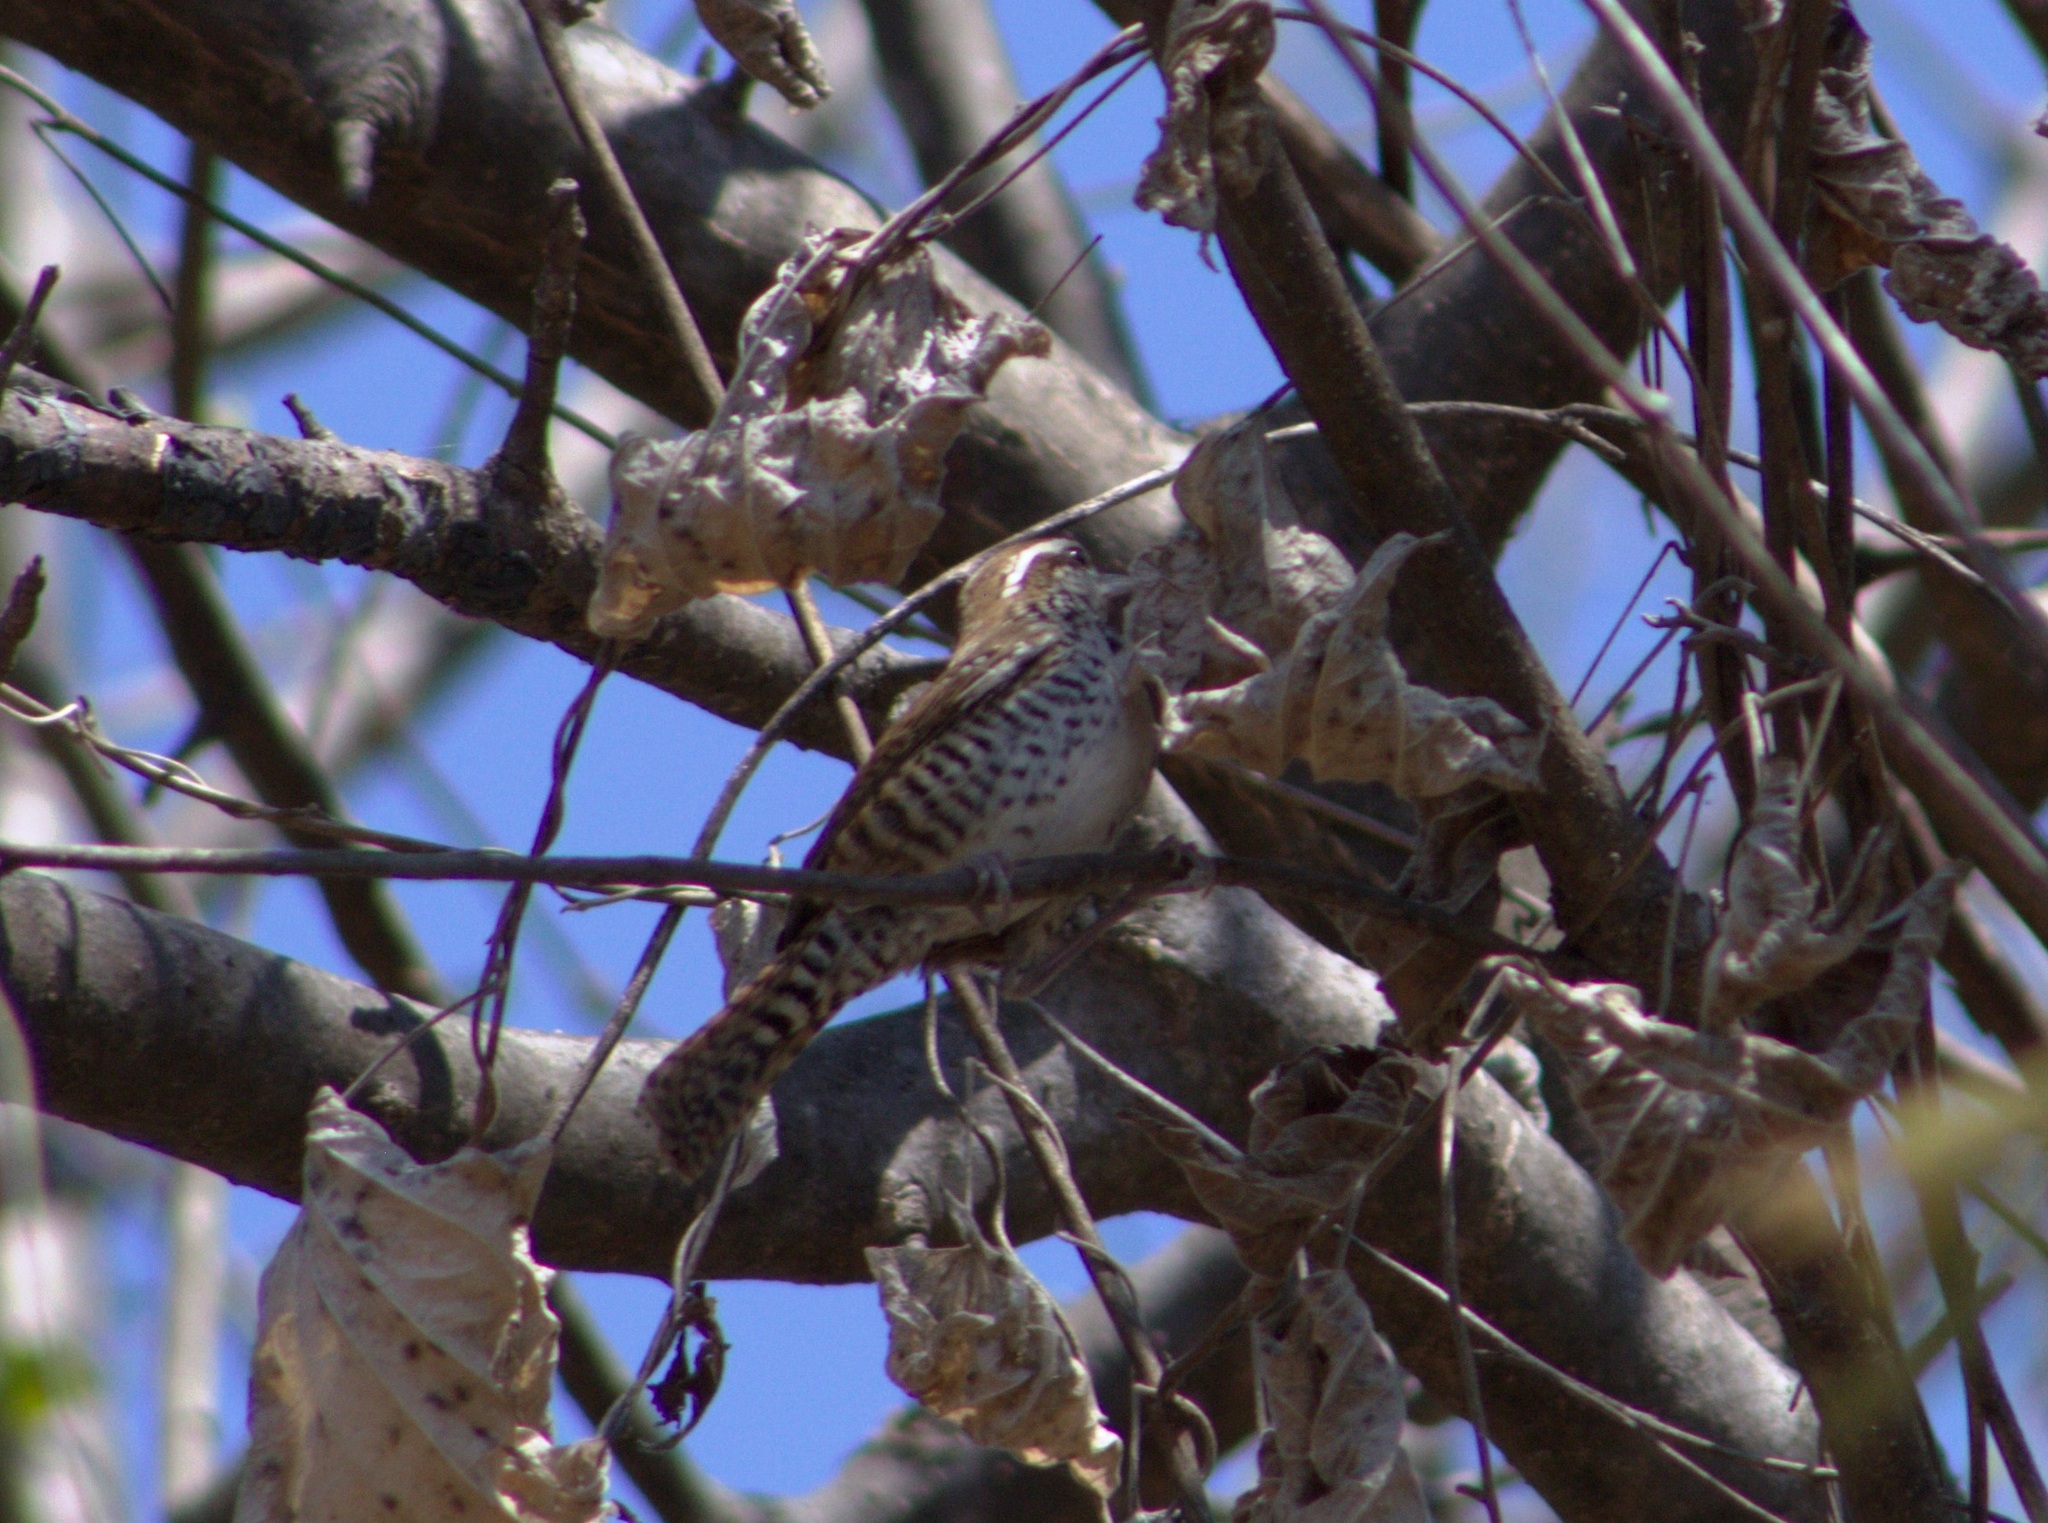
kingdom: Animalia
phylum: Chordata
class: Aves
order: Passeriformes
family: Troglodytidae
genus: Thryophilus
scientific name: Thryophilus pleurostictus
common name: Banded wren
